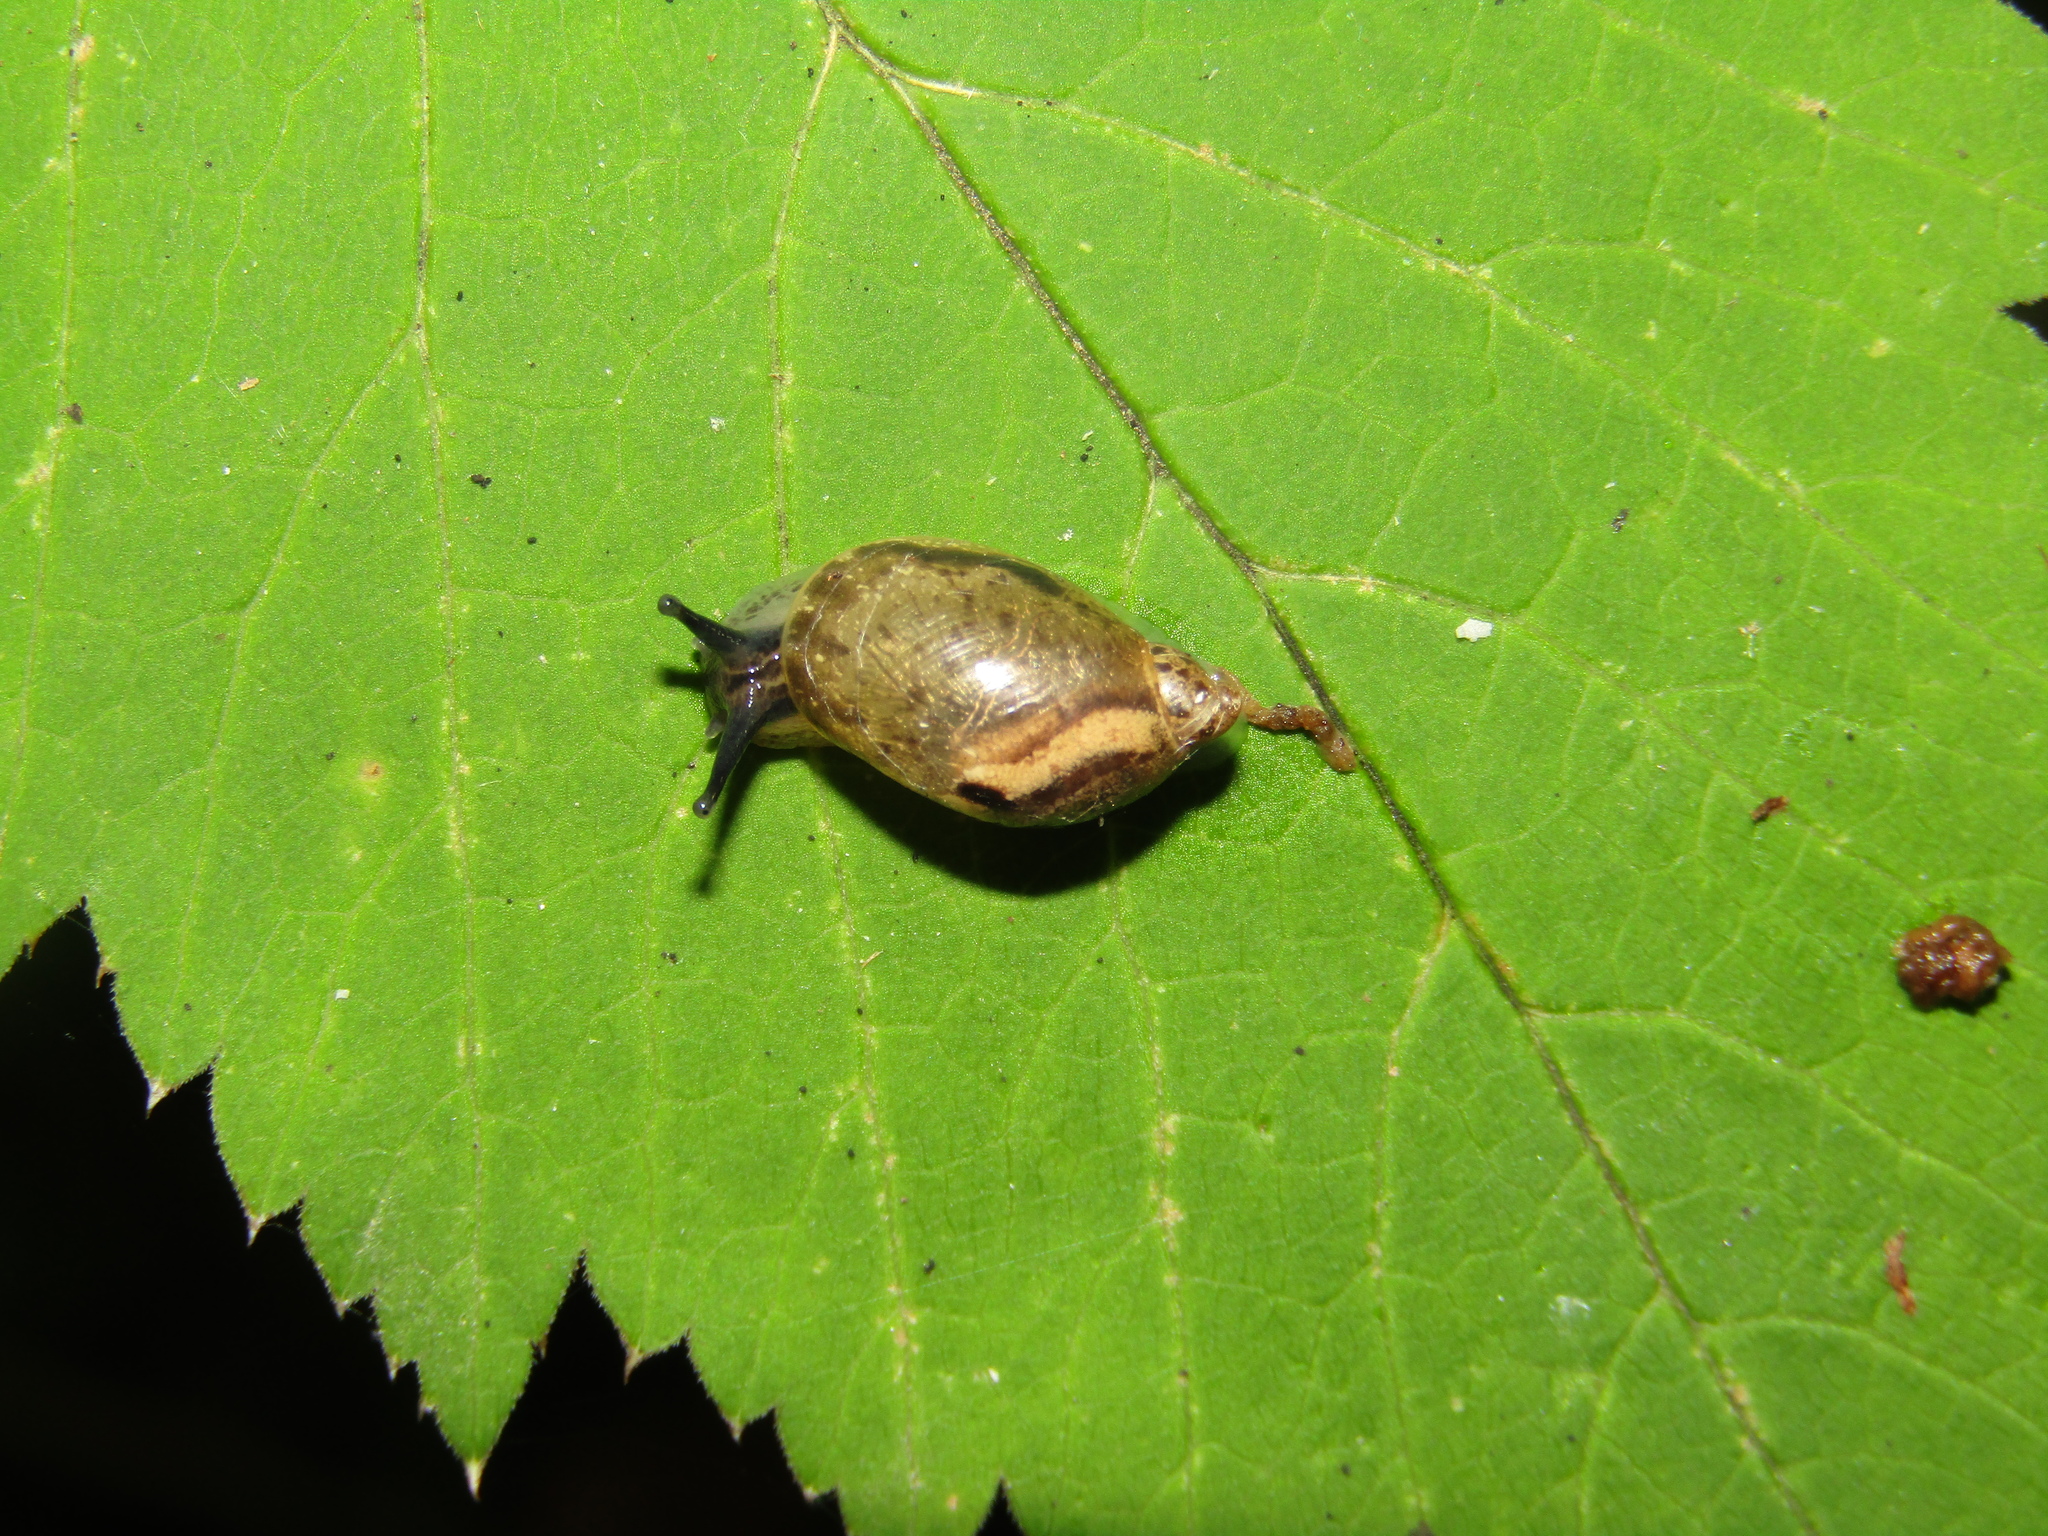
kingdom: Animalia
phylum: Mollusca
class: Gastropoda
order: Stylommatophora
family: Succineidae
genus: Succinea
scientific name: Succinea putris
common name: European ambersnail
